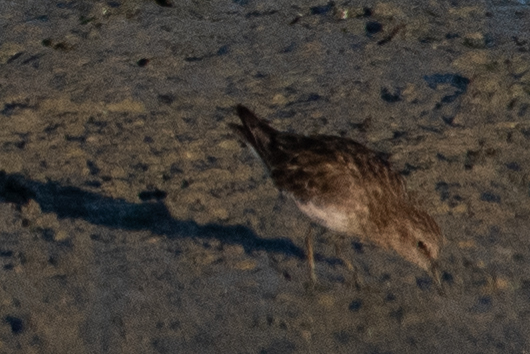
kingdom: Animalia
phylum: Chordata
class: Aves
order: Charadriiformes
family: Scolopacidae
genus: Calidris
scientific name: Calidris minutilla
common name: Least sandpiper
